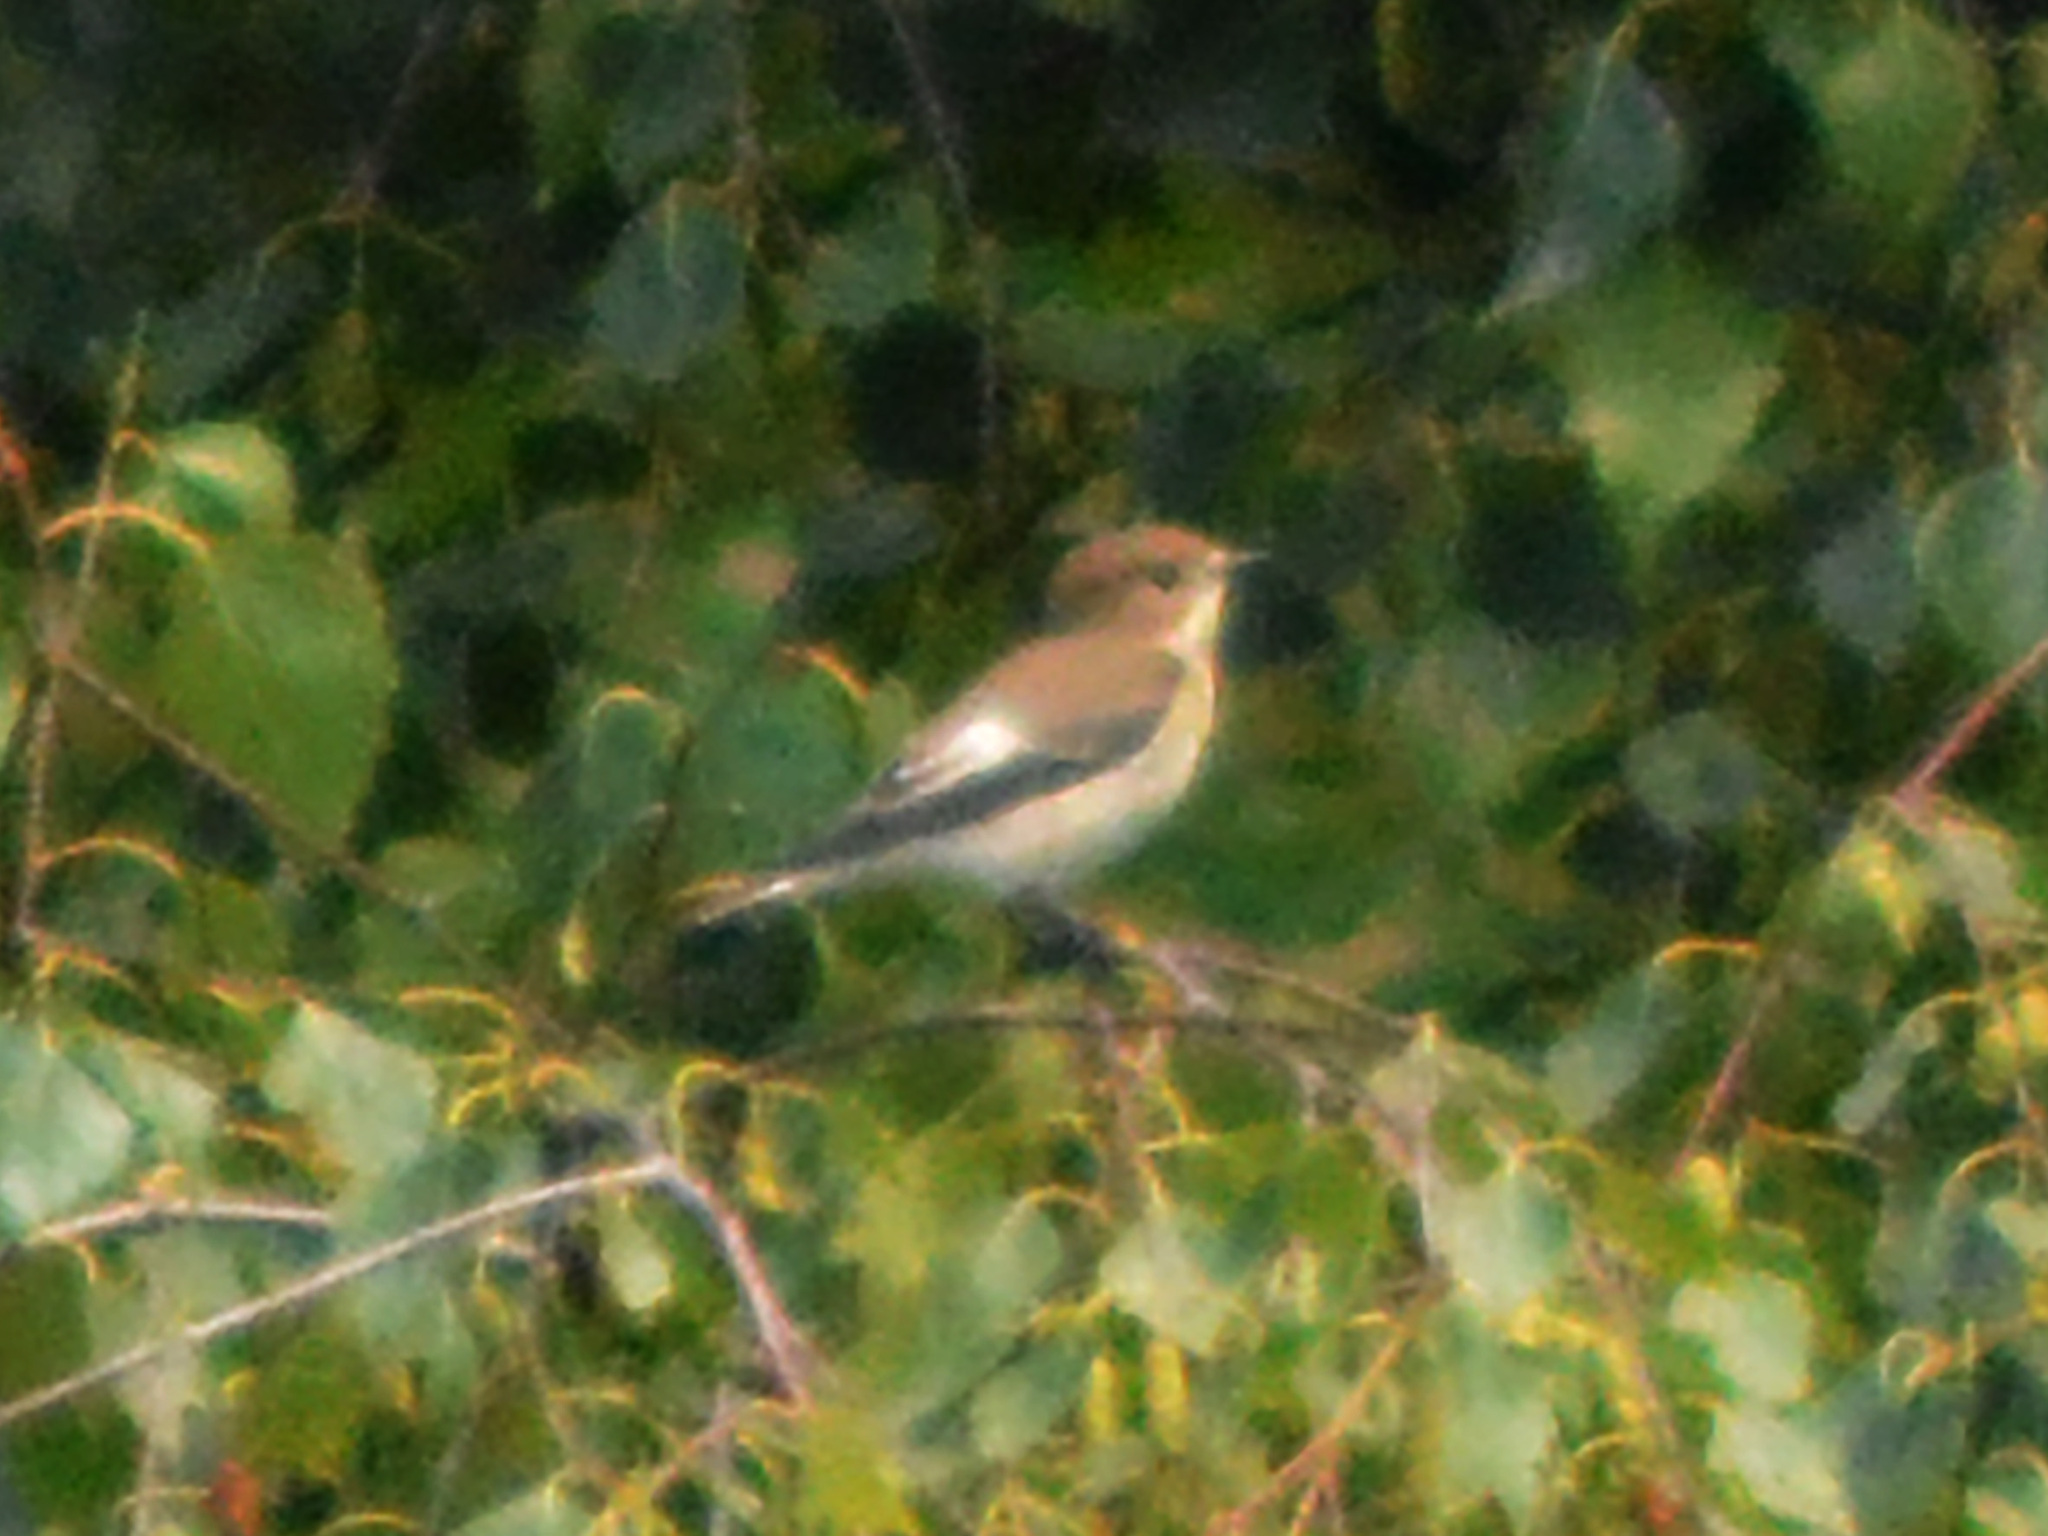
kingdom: Animalia
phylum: Chordata
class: Aves
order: Passeriformes
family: Muscicapidae
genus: Ficedula
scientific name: Ficedula hypoleuca
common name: European pied flycatcher
